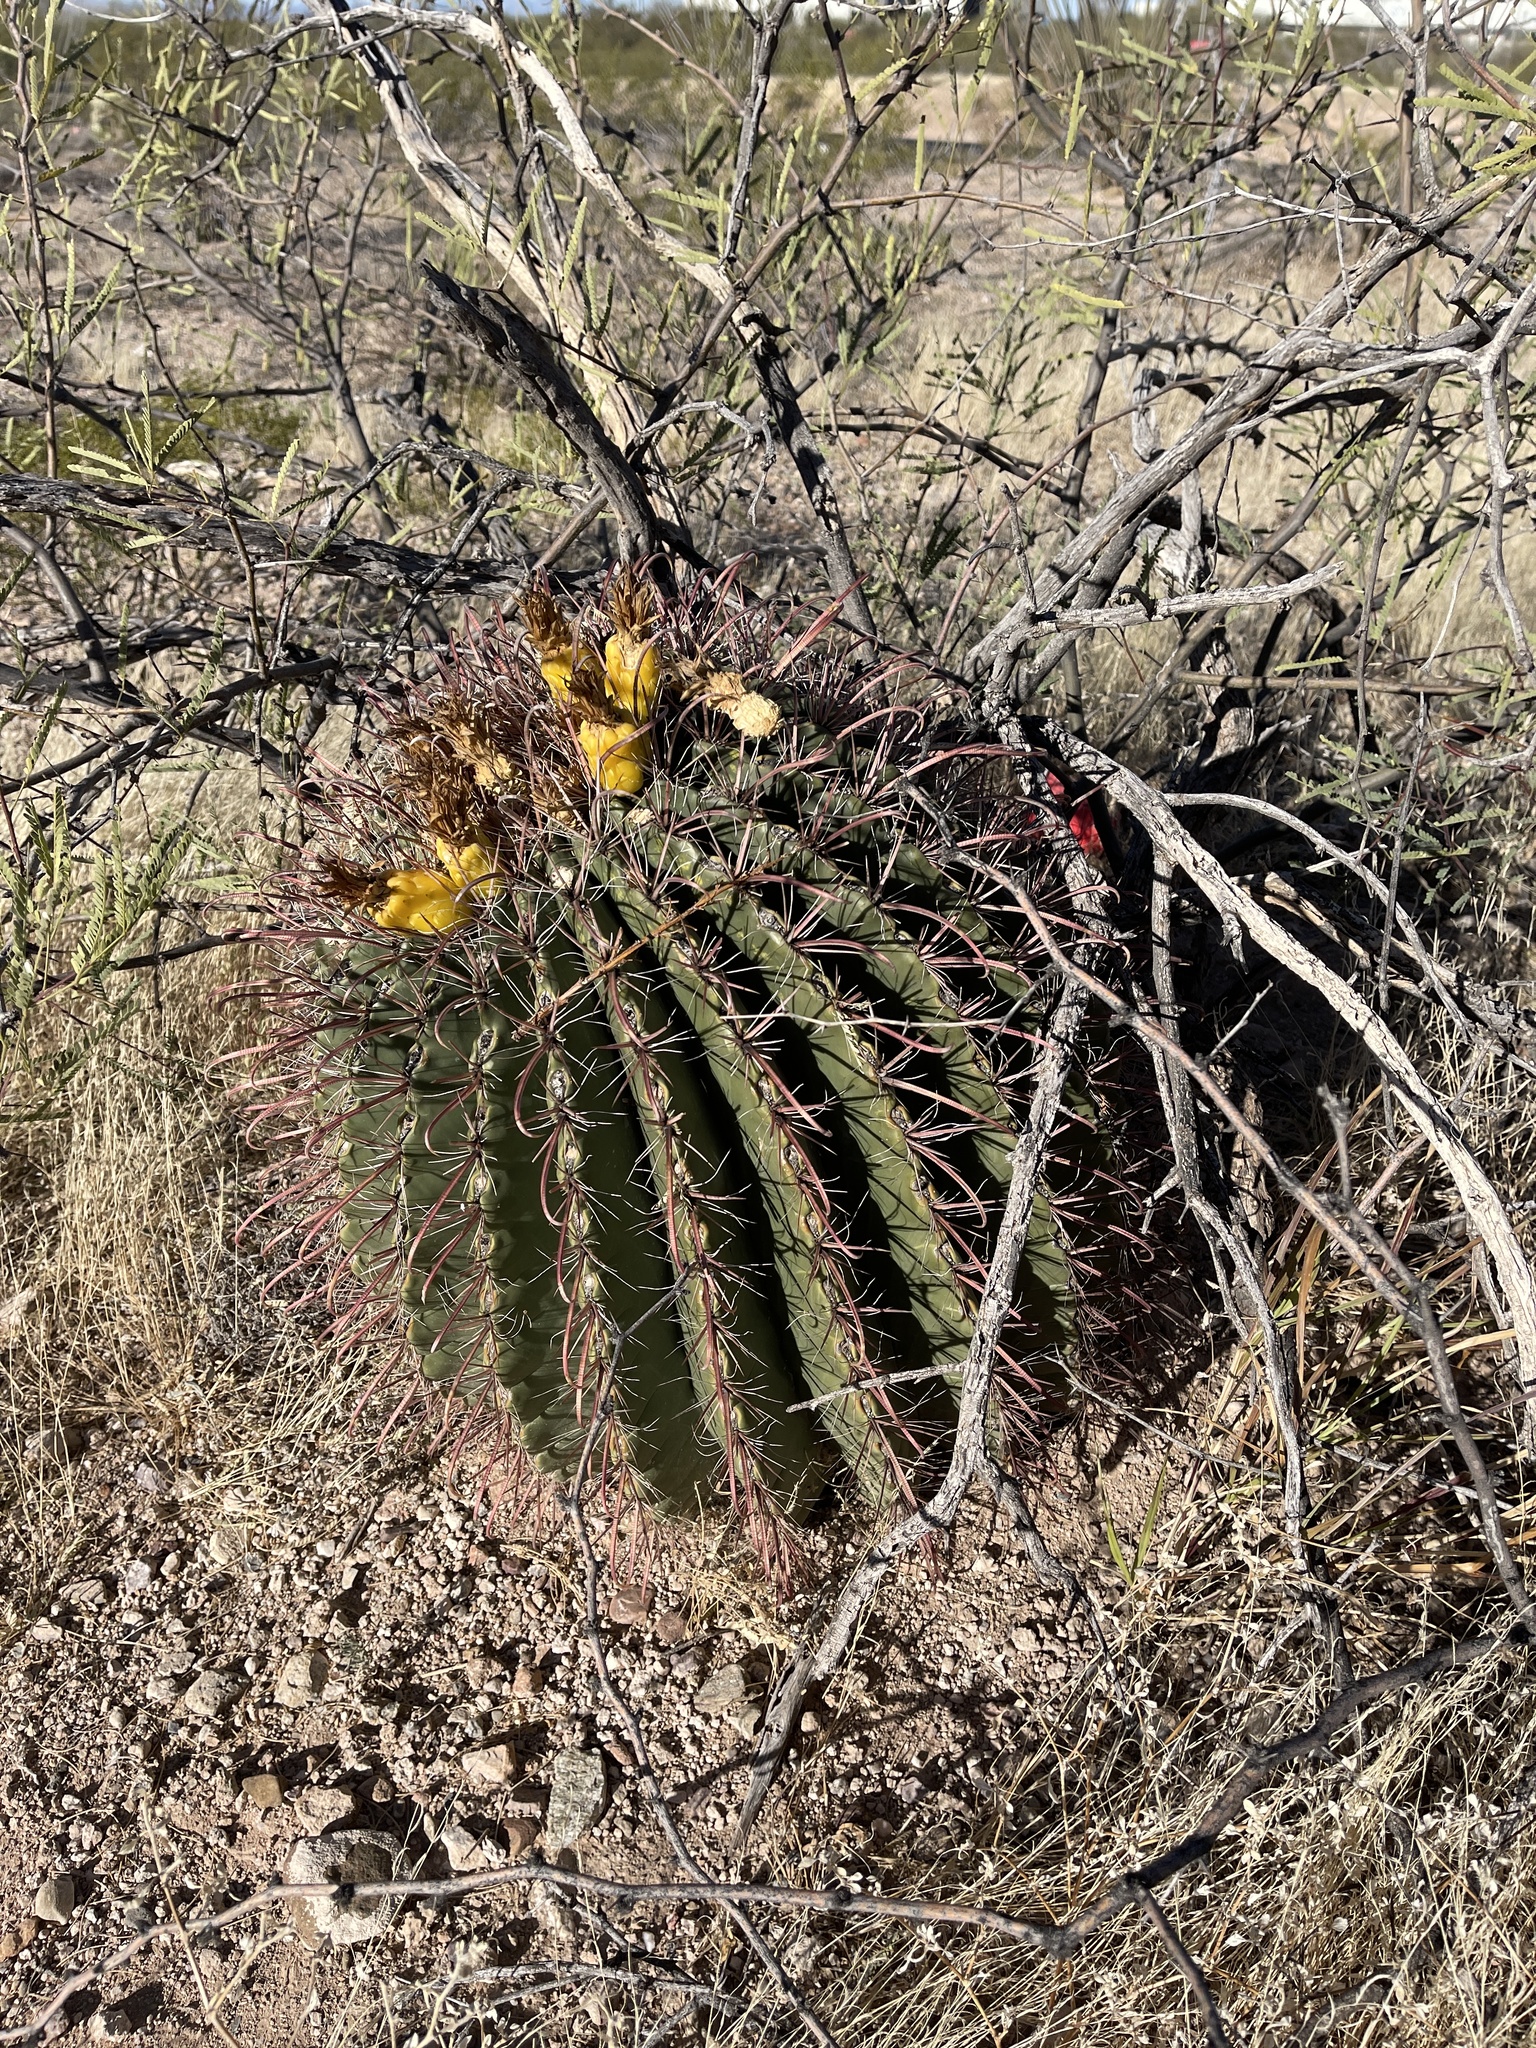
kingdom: Plantae
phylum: Tracheophyta
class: Magnoliopsida
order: Caryophyllales
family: Cactaceae
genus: Ferocactus
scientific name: Ferocactus wislizeni
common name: Candy barrel cactus
